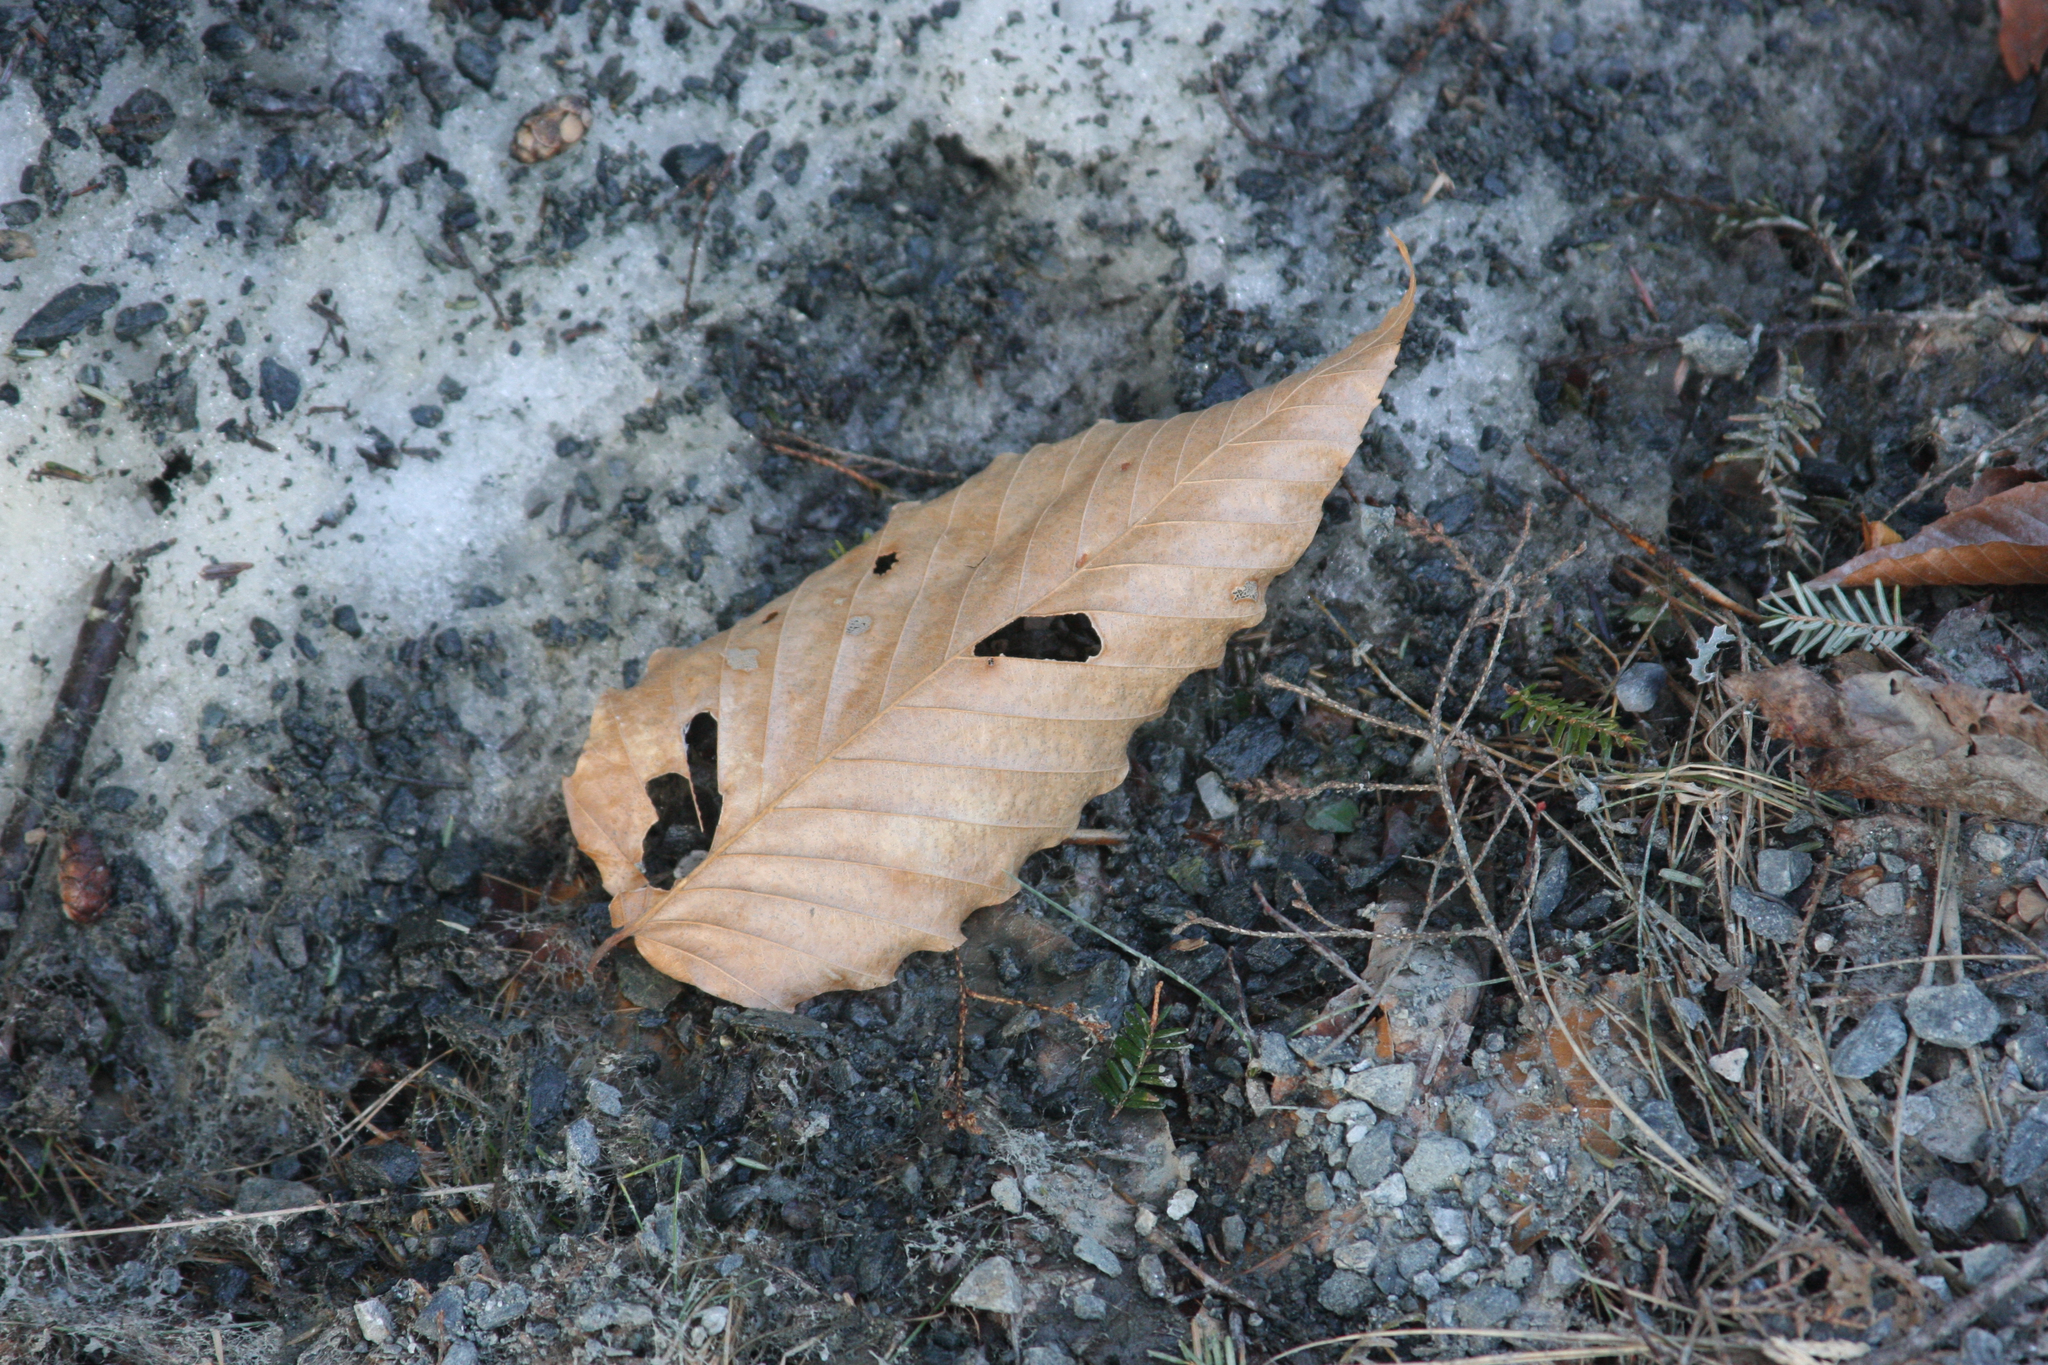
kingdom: Plantae
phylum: Tracheophyta
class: Magnoliopsida
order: Fagales
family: Fagaceae
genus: Fagus
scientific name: Fagus grandifolia
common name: American beech
